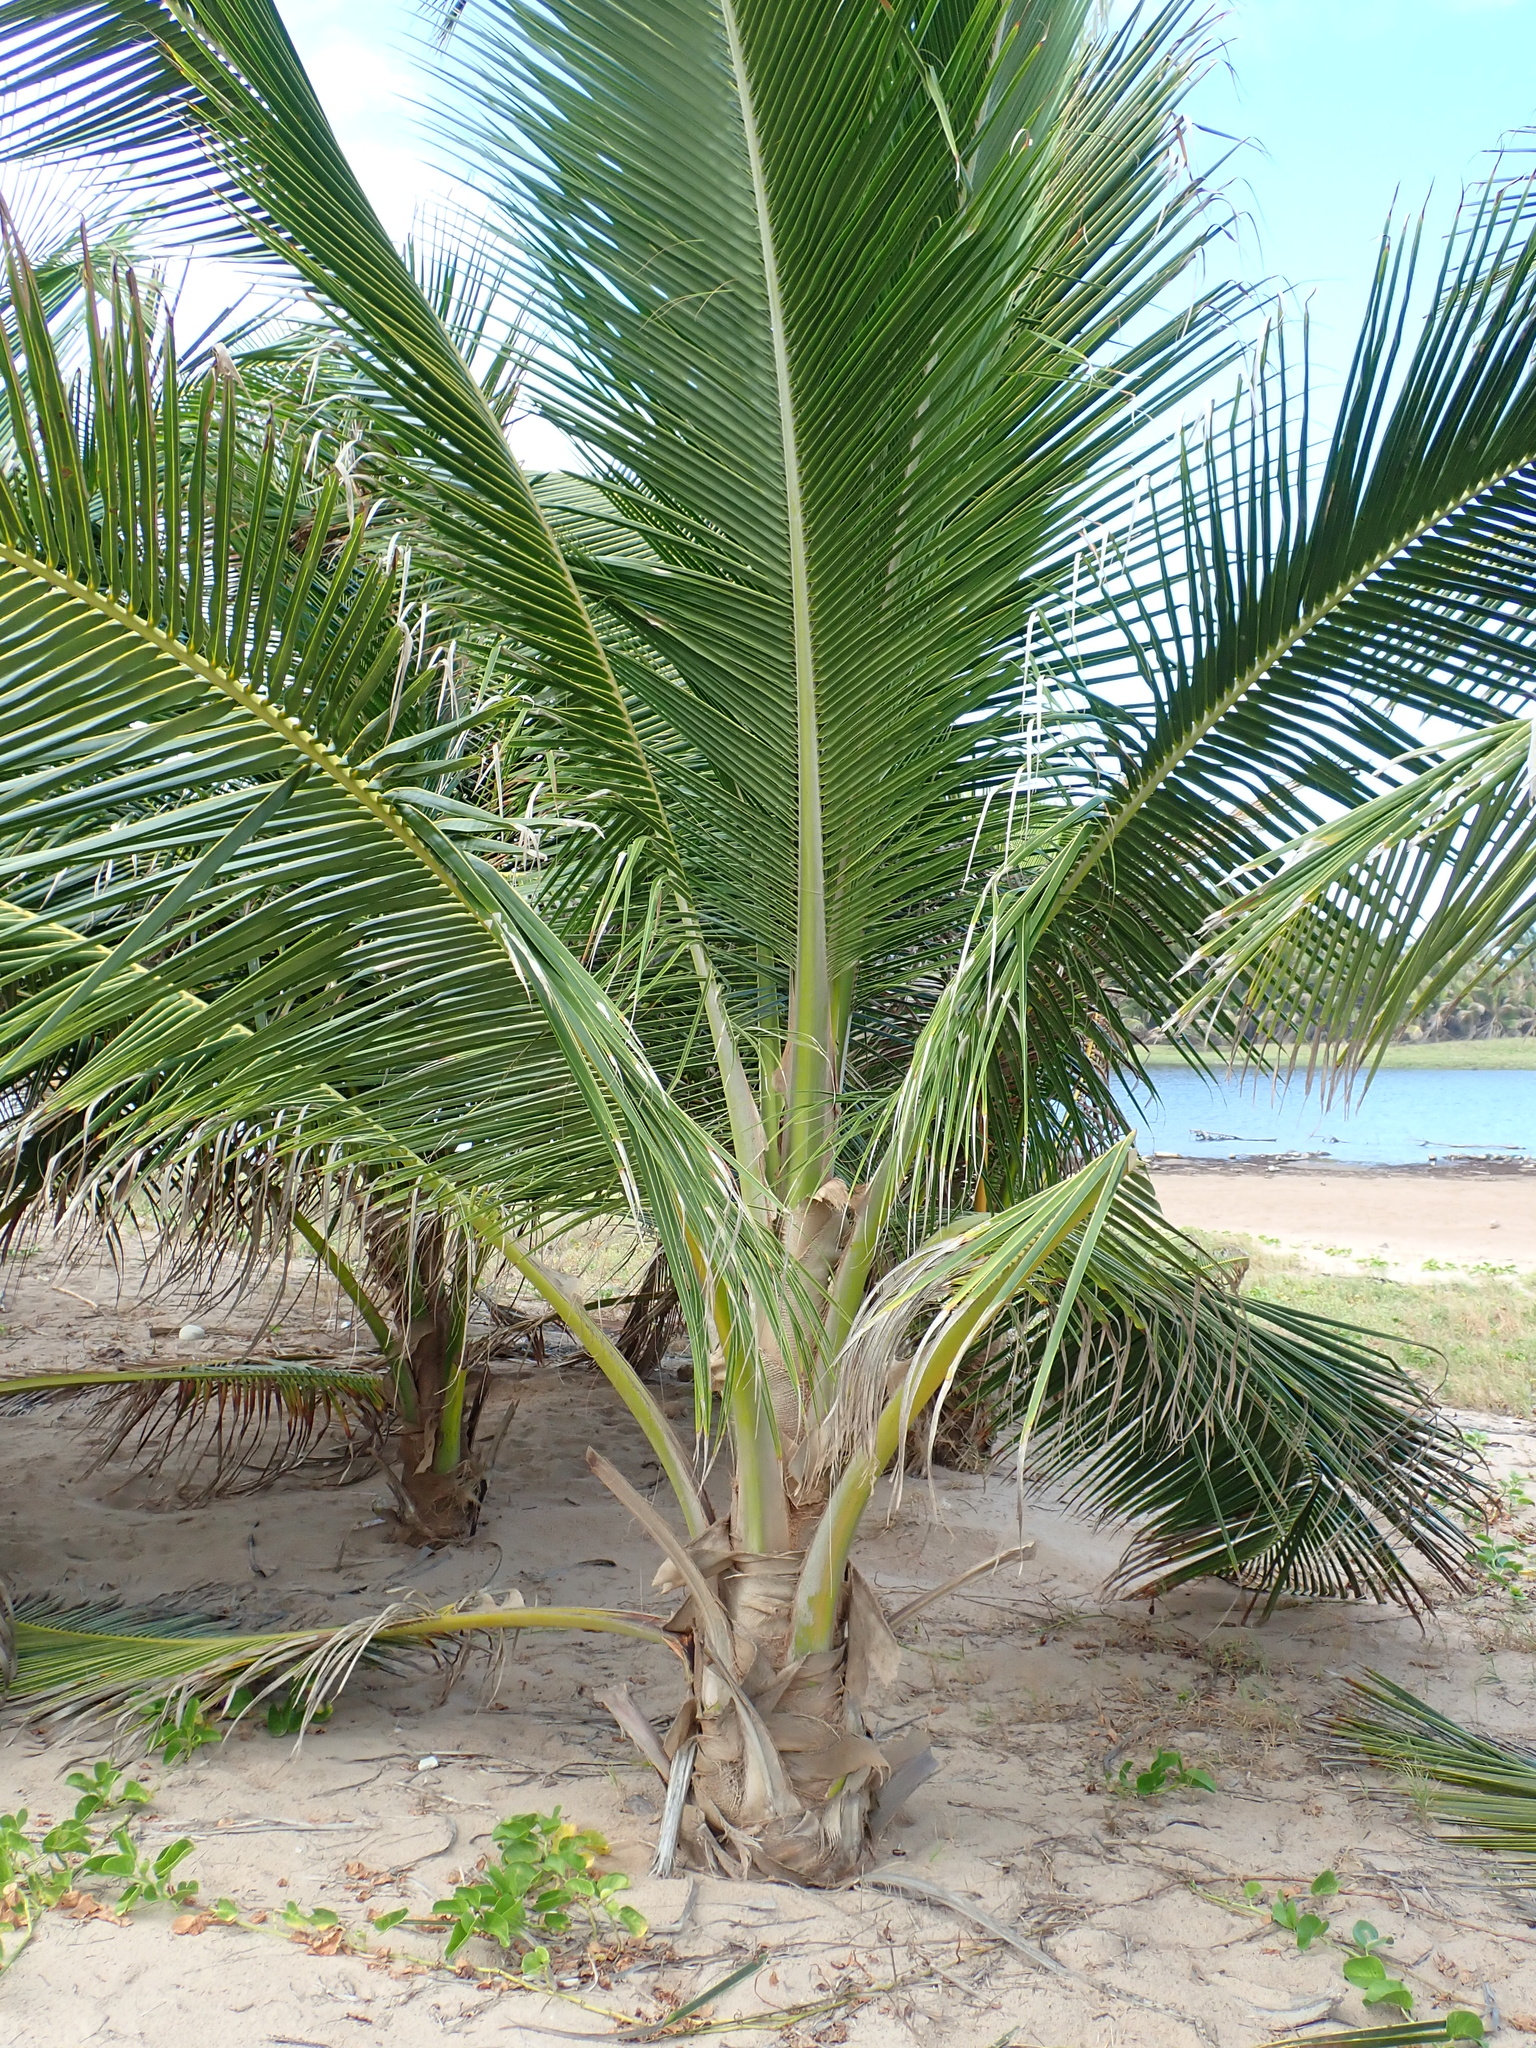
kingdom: Plantae
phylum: Tracheophyta
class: Liliopsida
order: Arecales
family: Arecaceae
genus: Cocos
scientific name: Cocos nucifera
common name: Coconut palm
